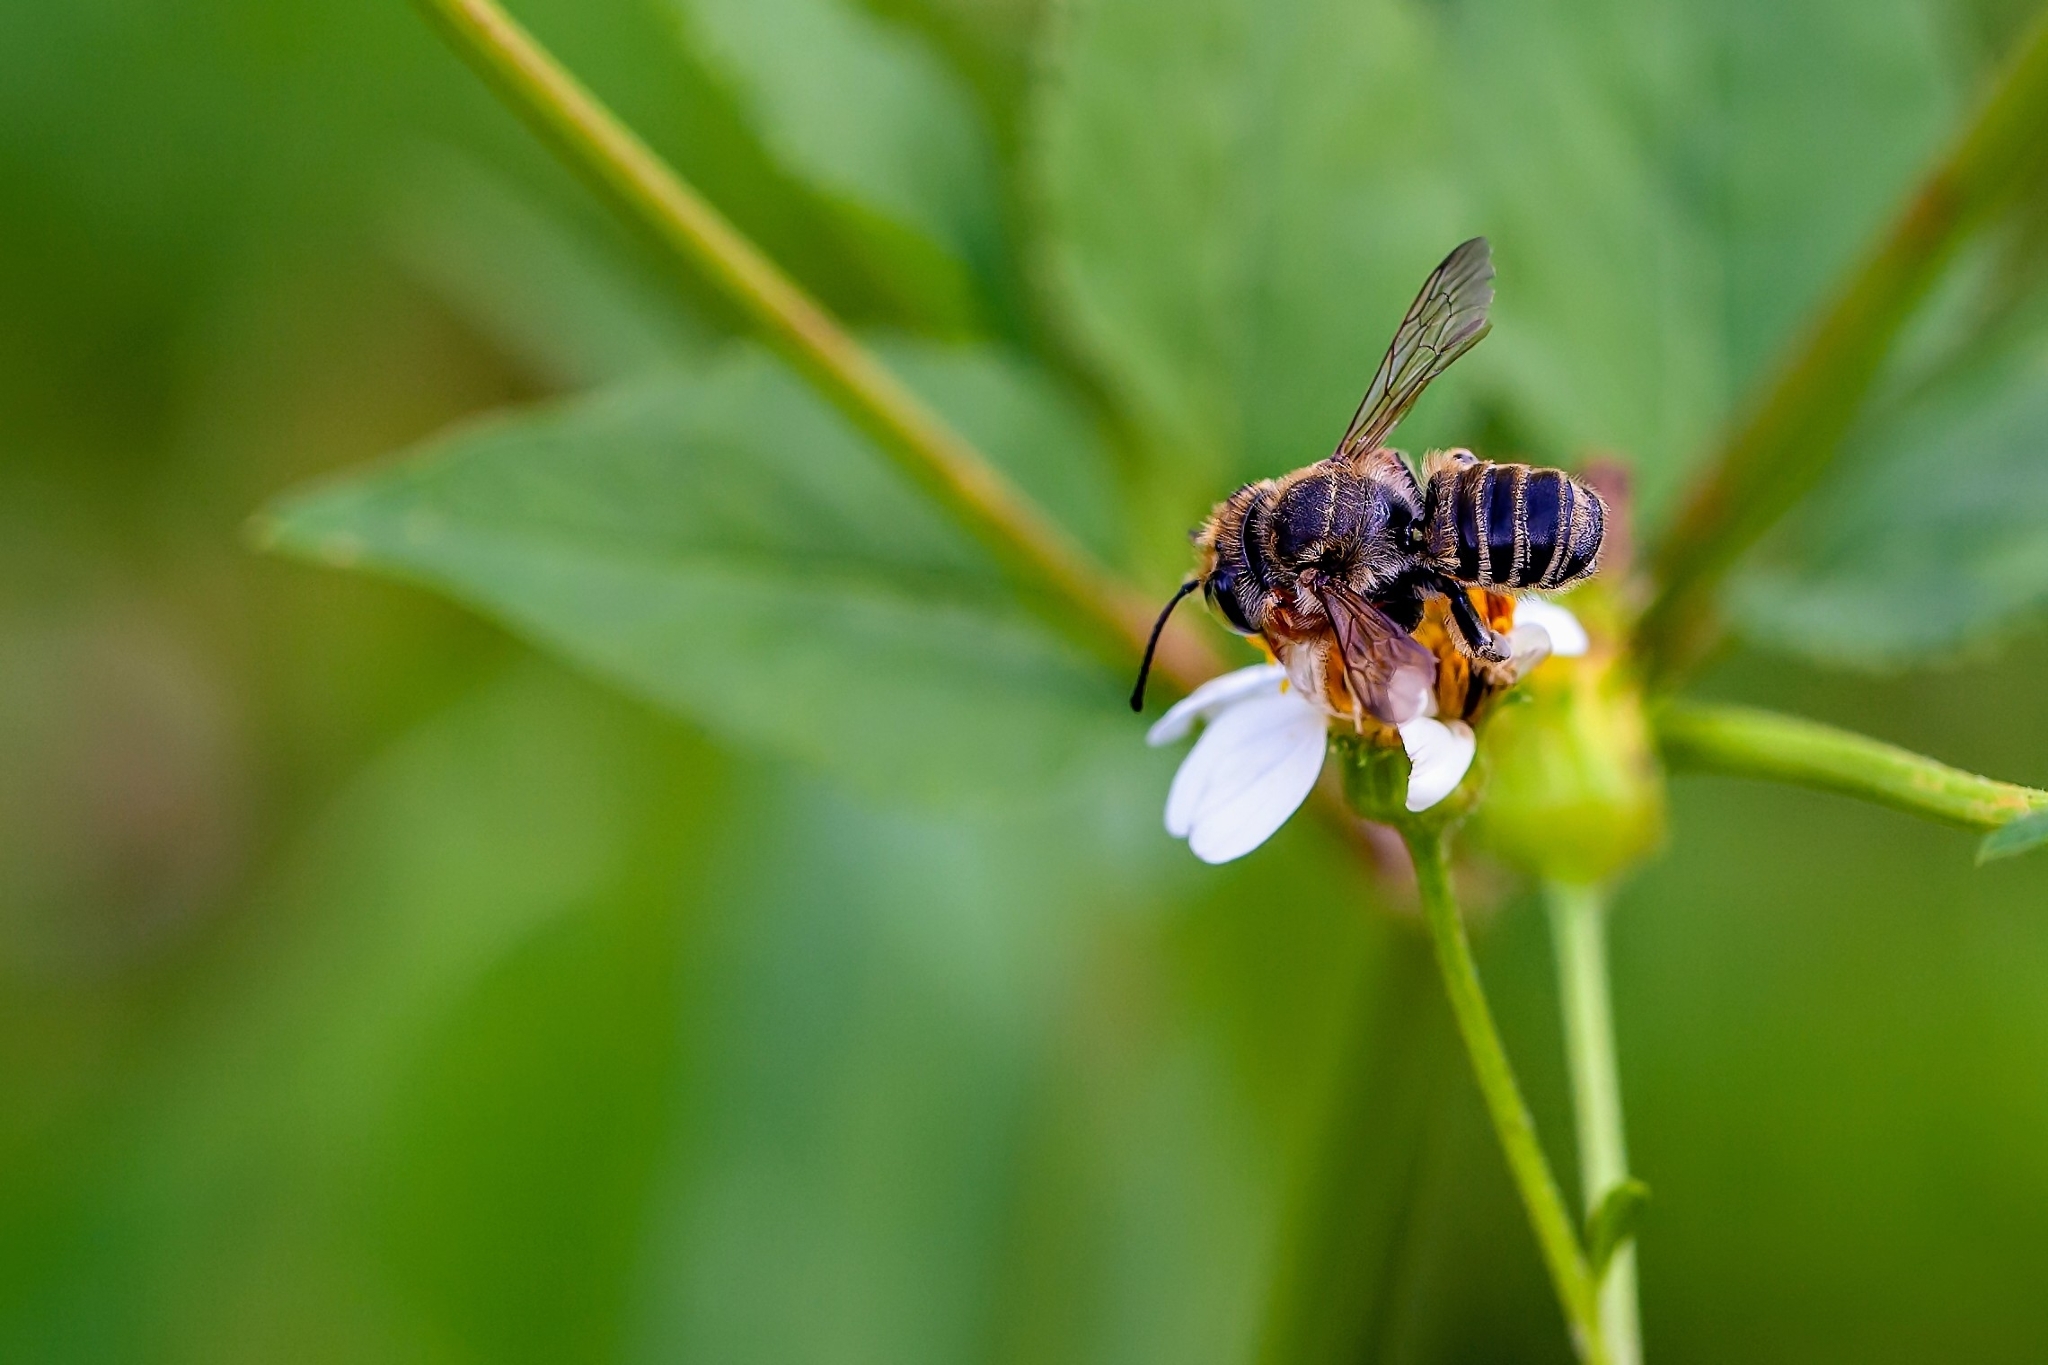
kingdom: Animalia
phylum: Arthropoda
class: Insecta
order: Hymenoptera
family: Megachilidae
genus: Megachile
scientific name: Megachile albitarsis
